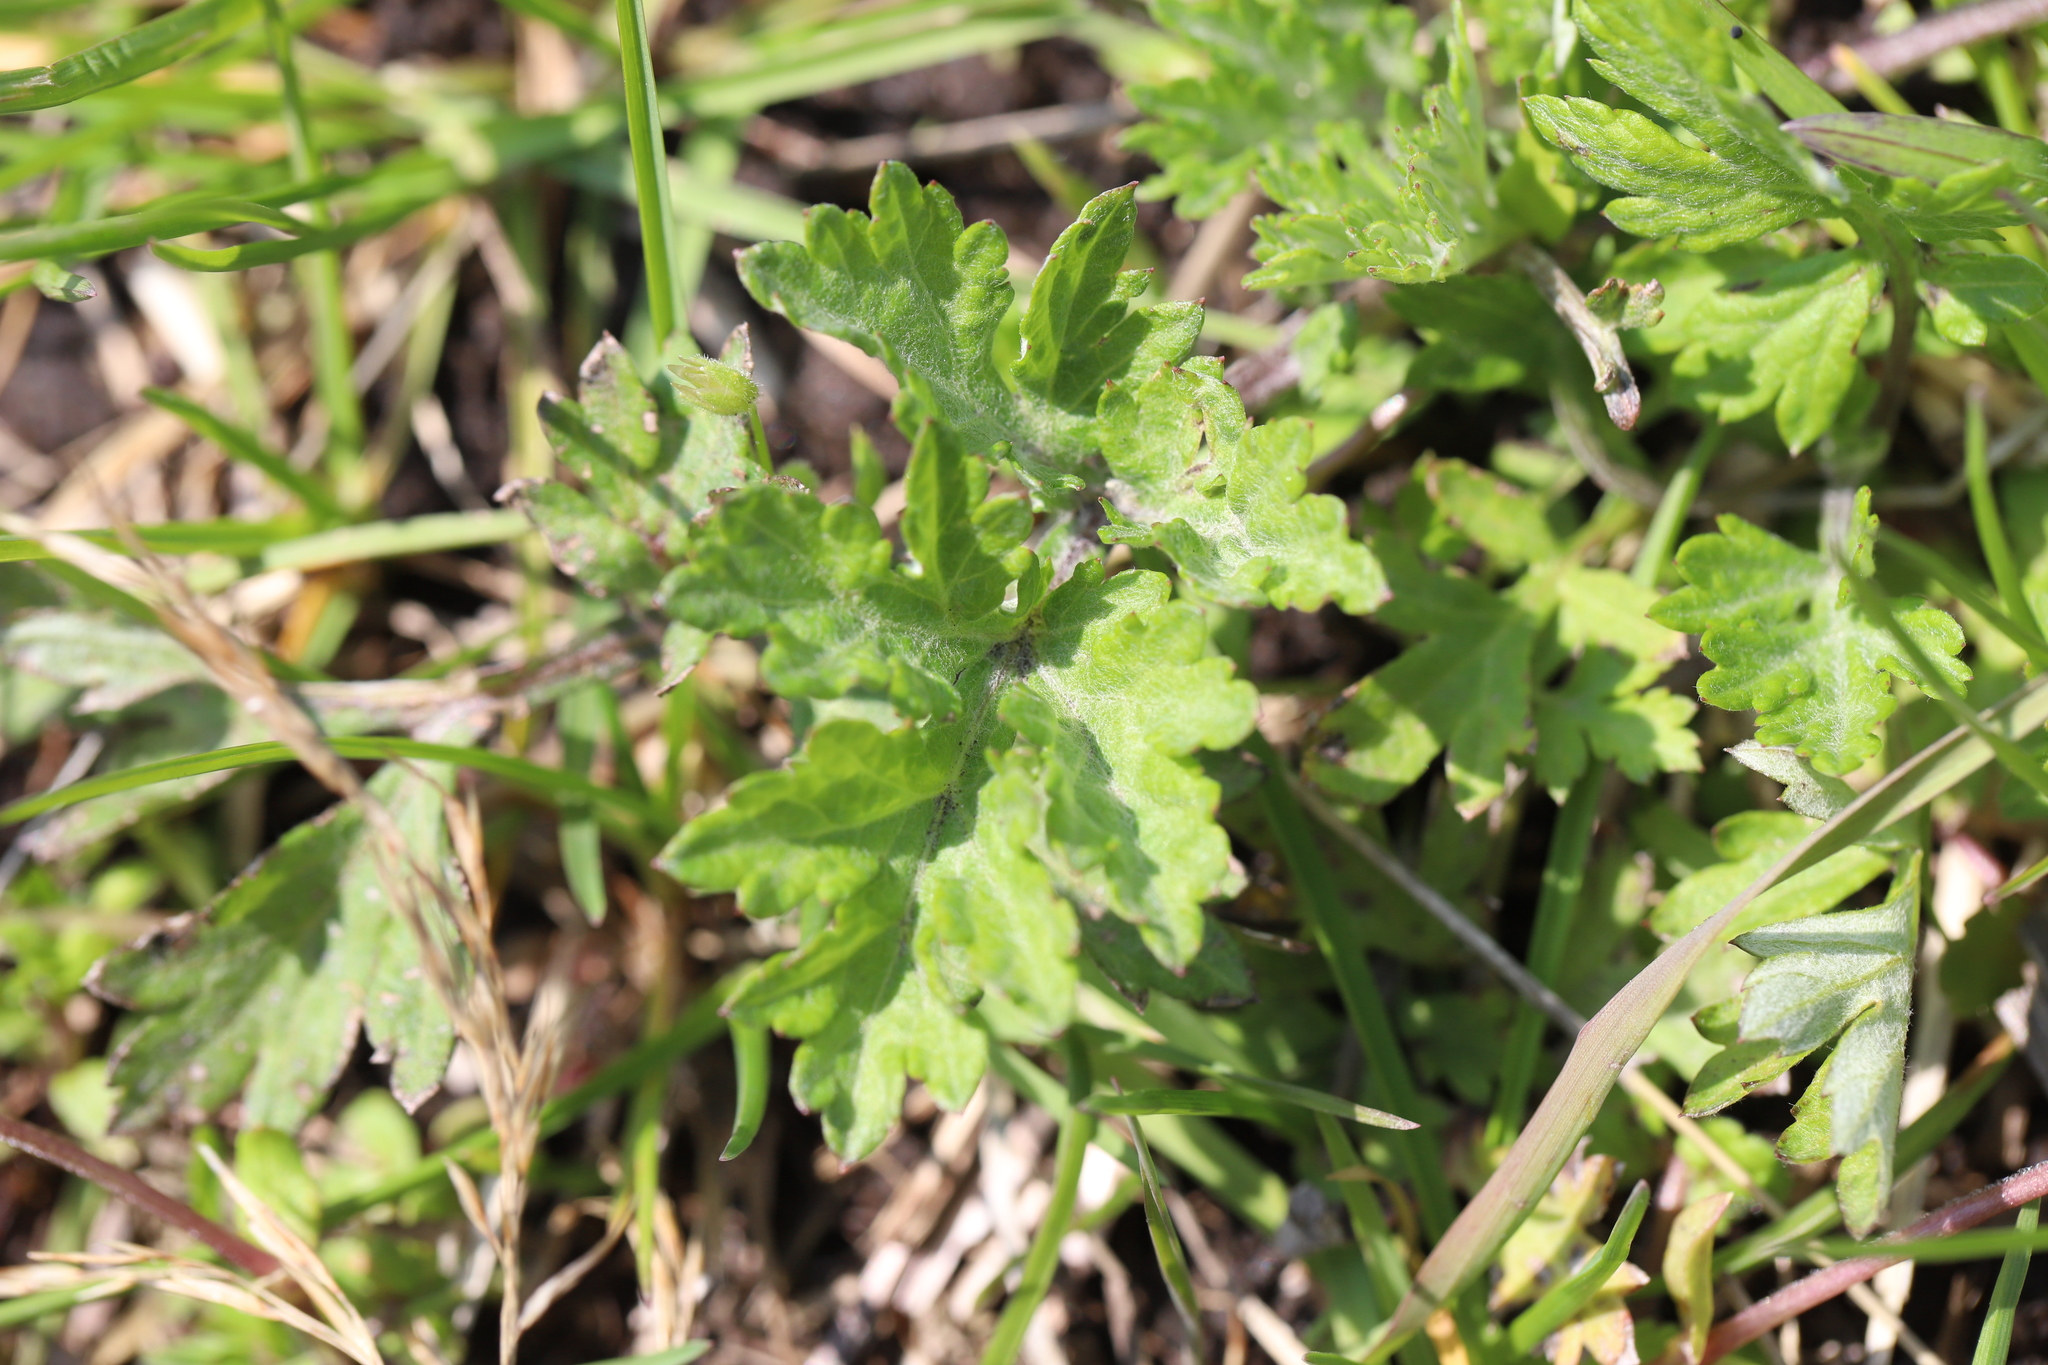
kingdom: Plantae
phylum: Tracheophyta
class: Magnoliopsida
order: Asterales
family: Asteraceae
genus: Artemisia
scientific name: Artemisia vulgaris
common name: Mugwort
